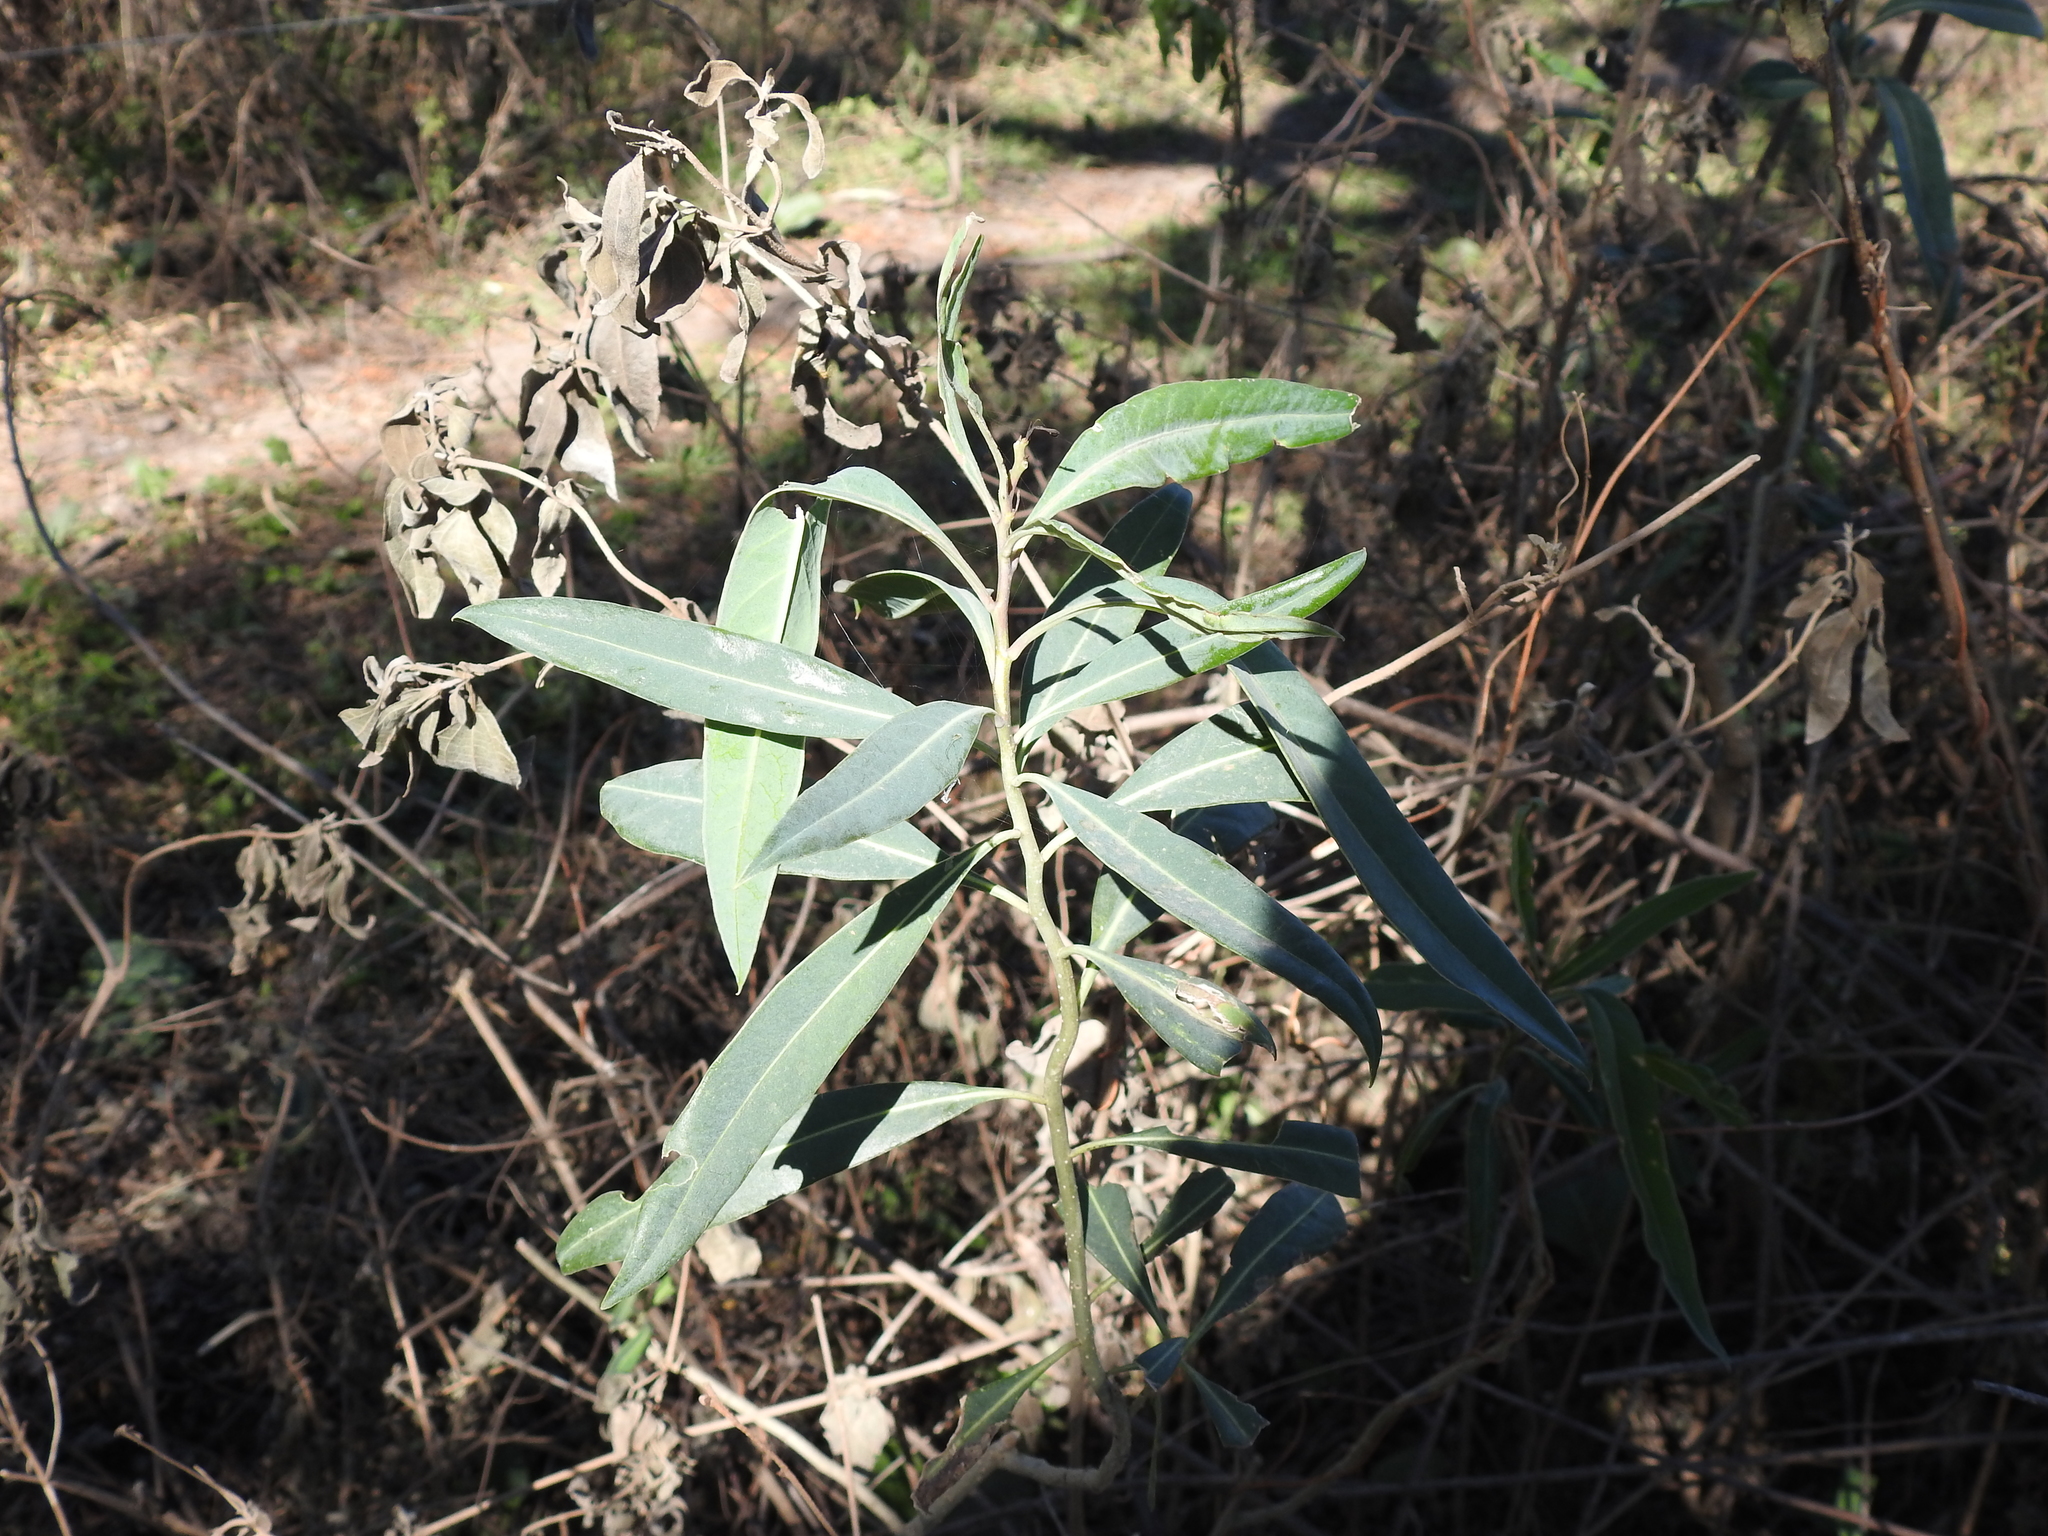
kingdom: Plantae
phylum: Tracheophyta
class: Magnoliopsida
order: Solanales
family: Solanaceae
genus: Solanum
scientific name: Solanum glaucophyllum
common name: Waxyleaf nightshade
